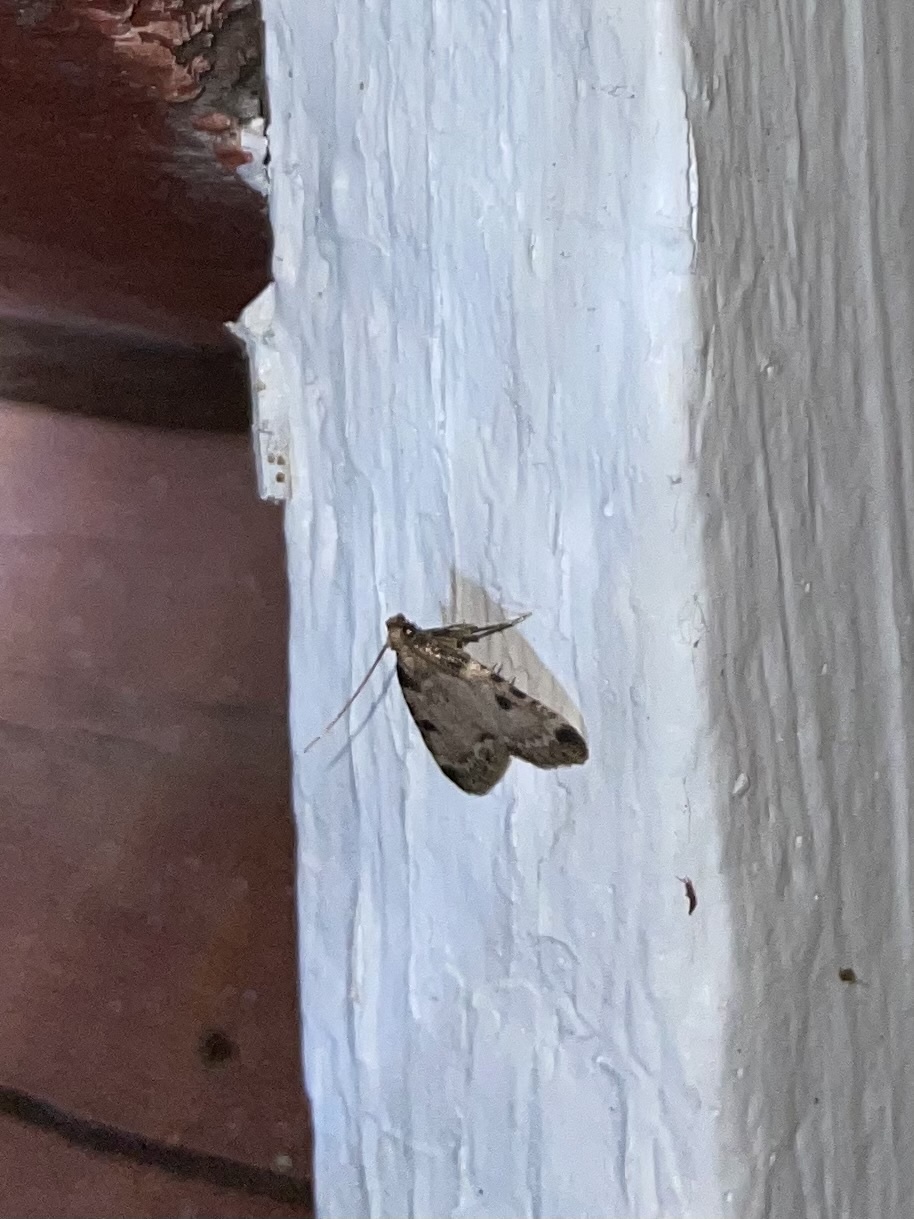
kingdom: Animalia
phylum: Arthropoda
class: Insecta
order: Lepidoptera
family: Pyralidae
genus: Aglossa
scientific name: Aglossa costiferalis
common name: Calico pyralid moth
